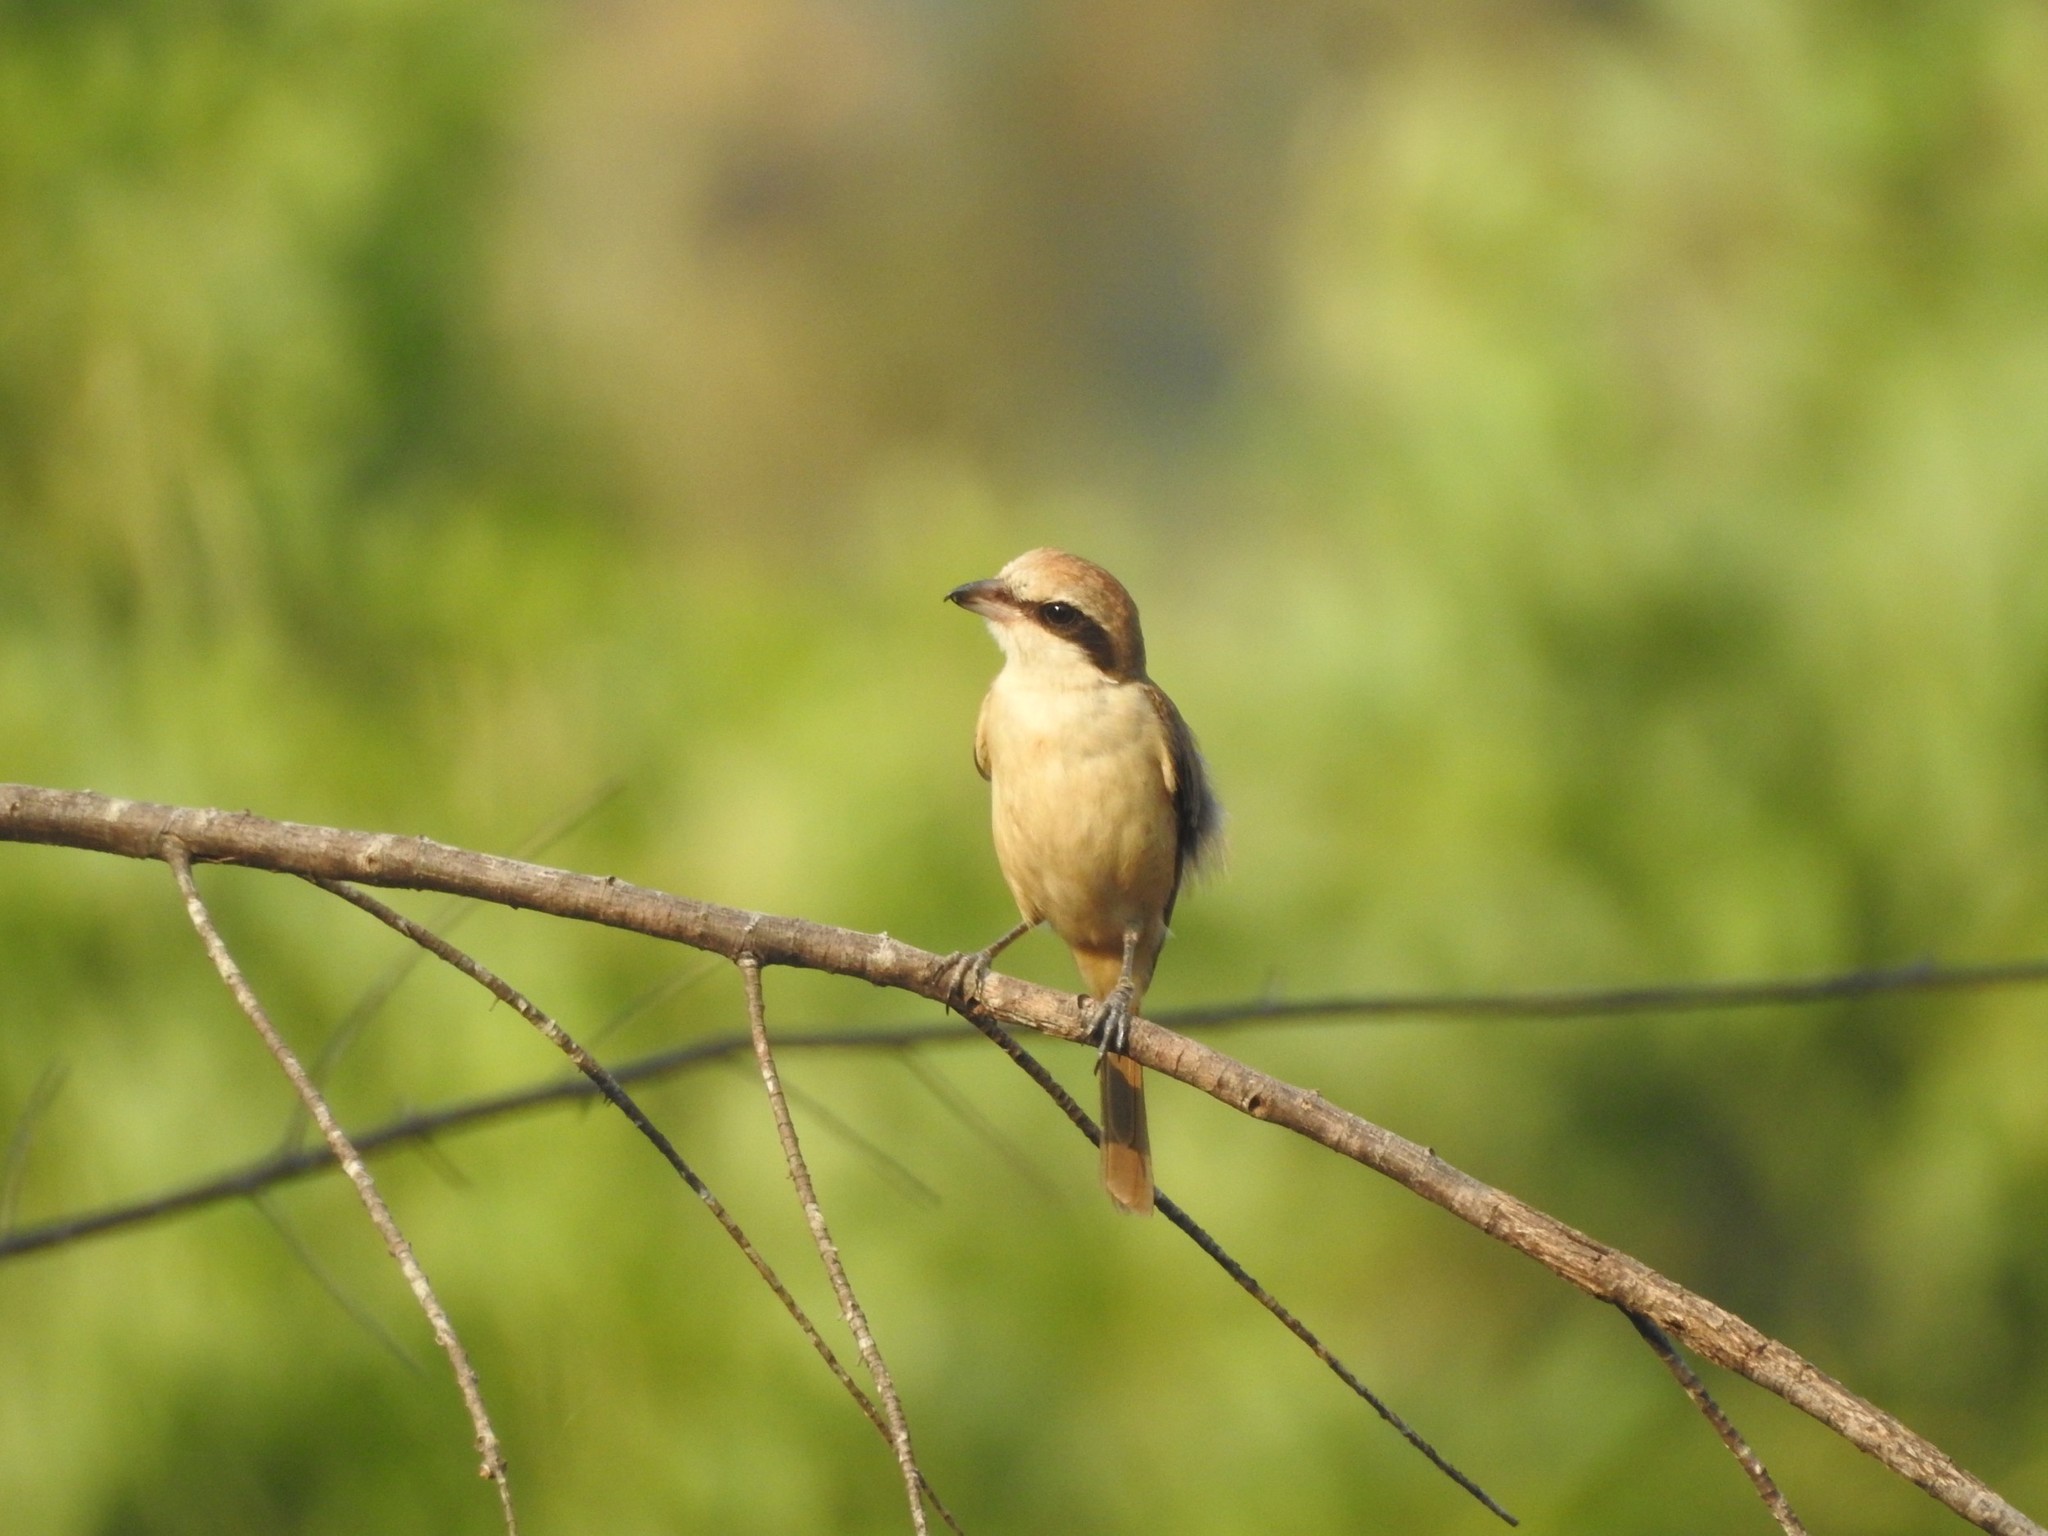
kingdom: Animalia
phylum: Chordata
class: Aves
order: Passeriformes
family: Laniidae
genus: Lanius
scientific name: Lanius cristatus
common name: Brown shrike
